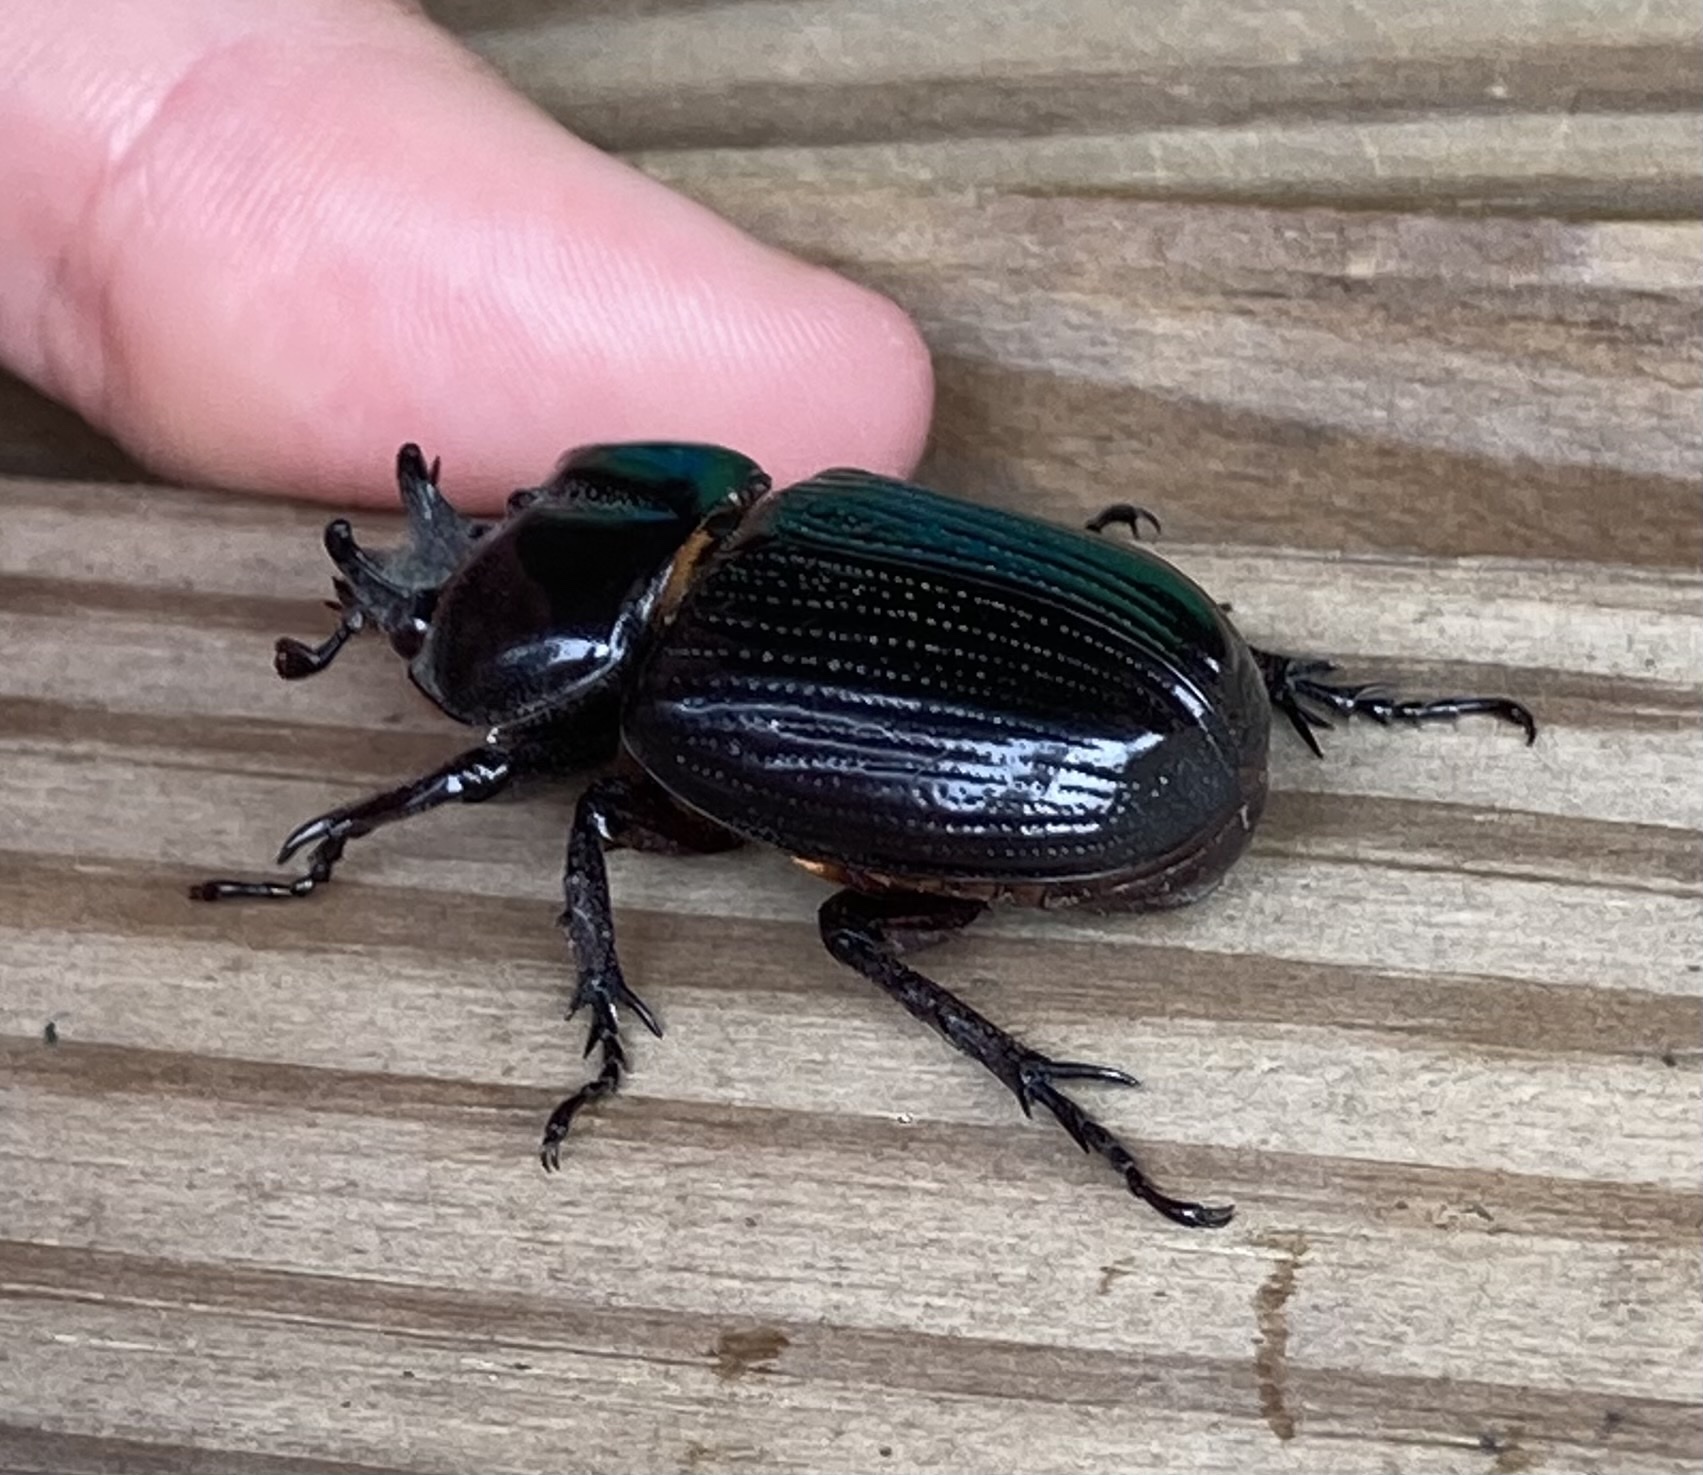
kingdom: Animalia
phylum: Arthropoda
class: Insecta
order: Coleoptera
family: Scarabaeidae
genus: Phileurus
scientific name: Phileurus truncatus
